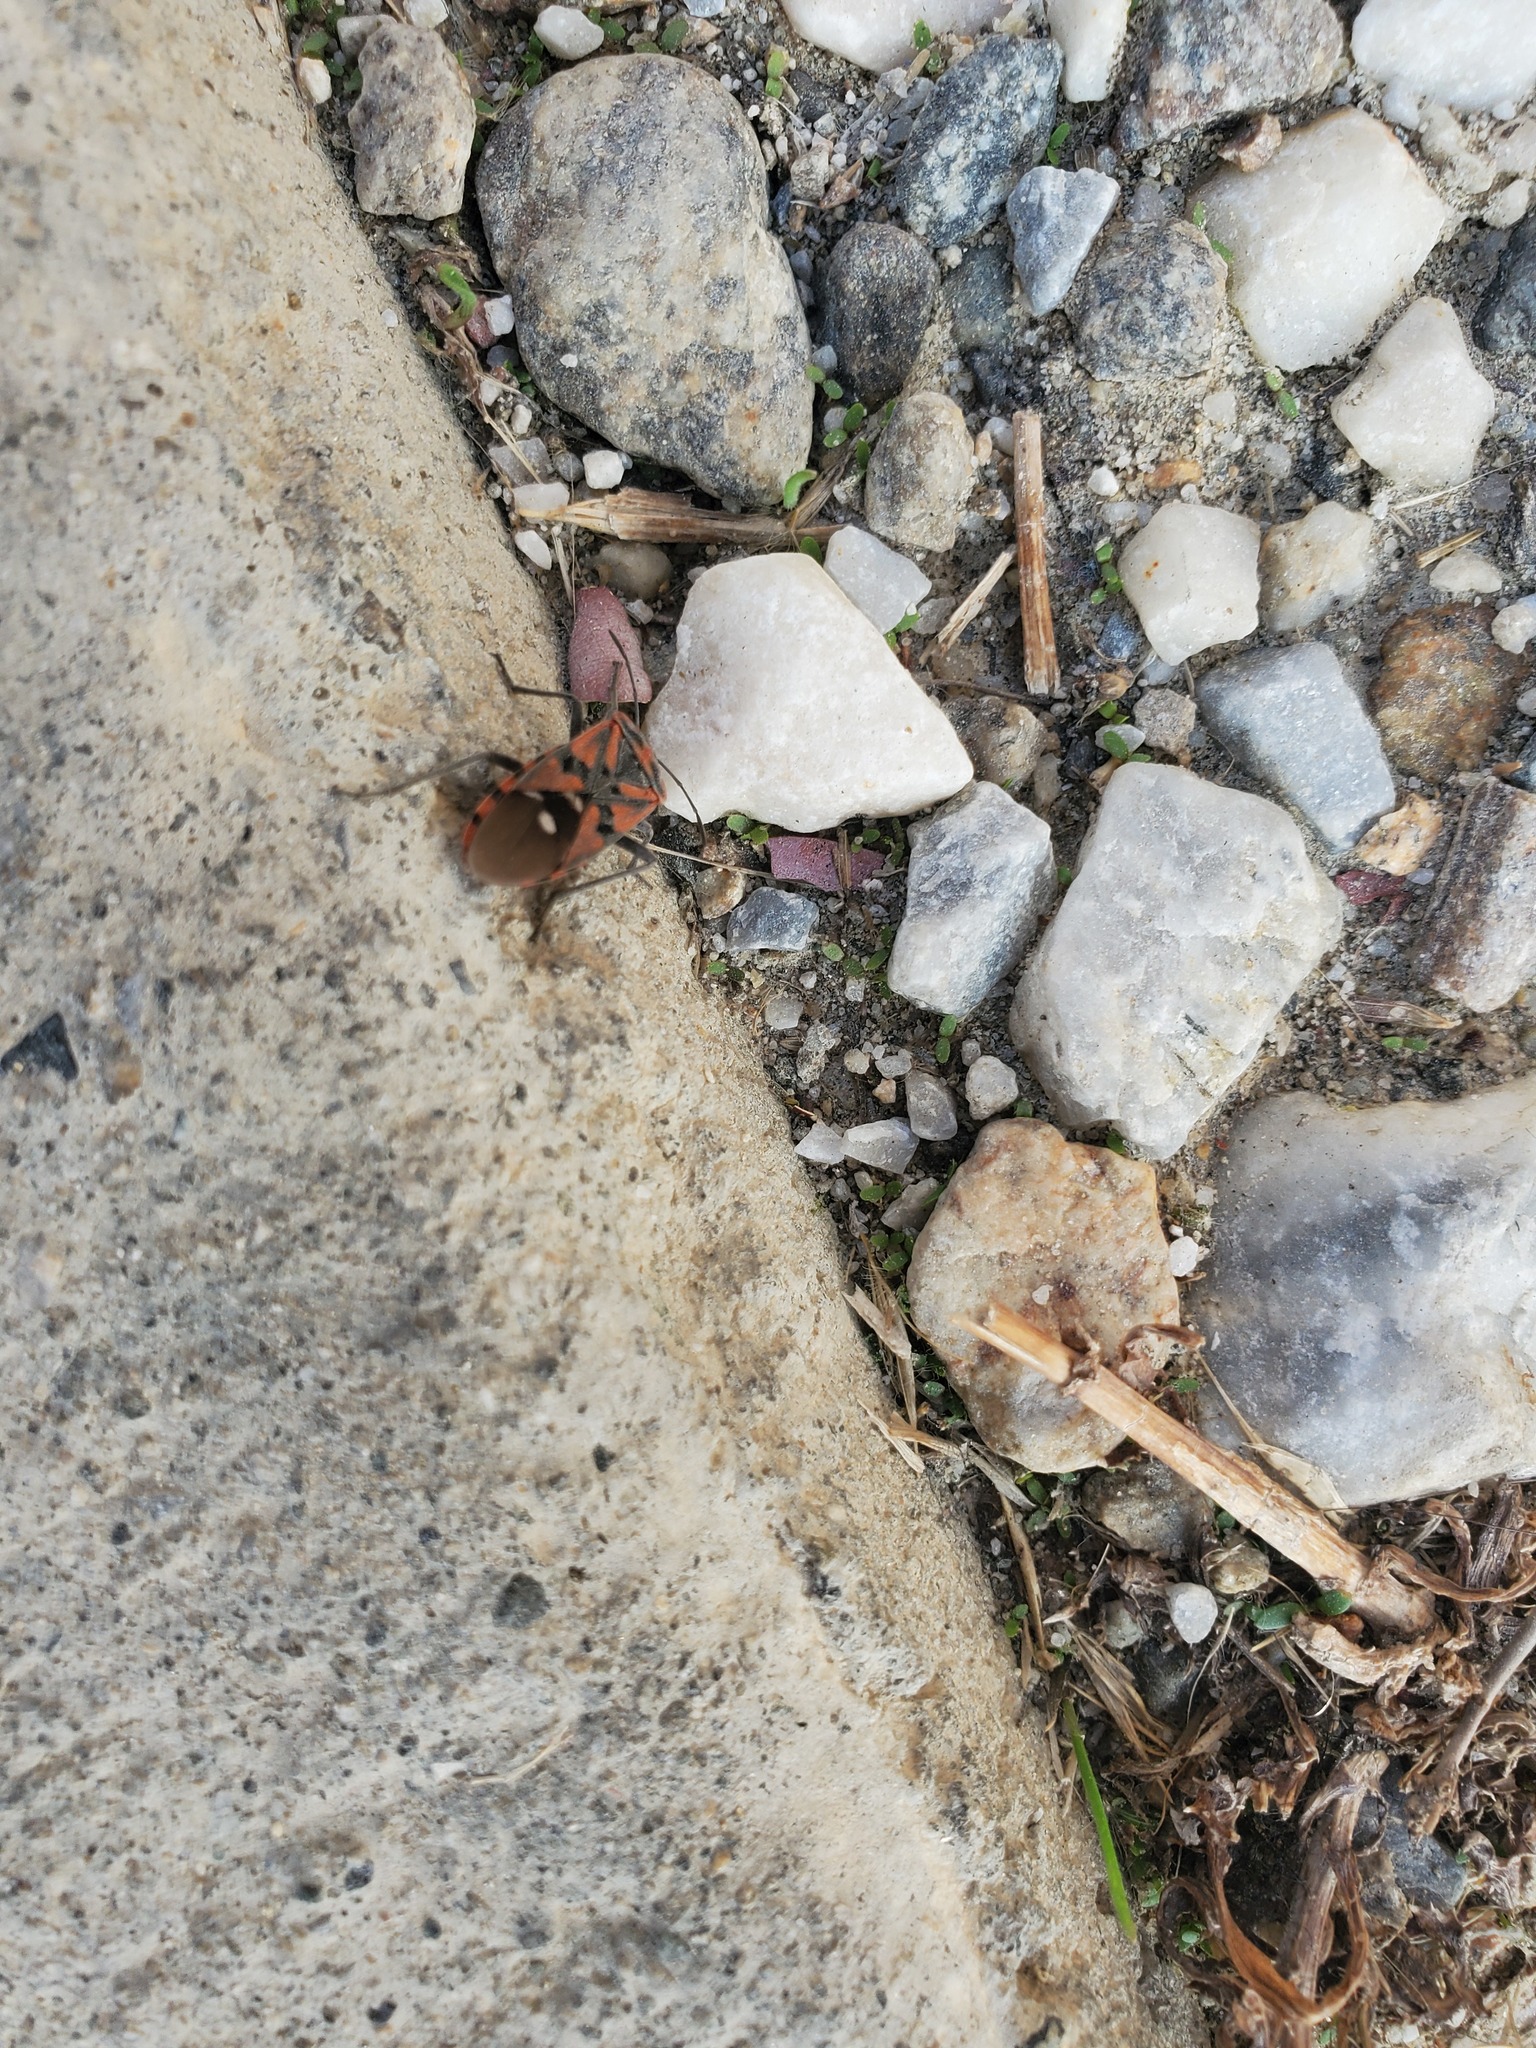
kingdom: Animalia
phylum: Arthropoda
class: Insecta
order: Hemiptera
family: Lygaeidae
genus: Spilostethus
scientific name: Spilostethus pandurus
